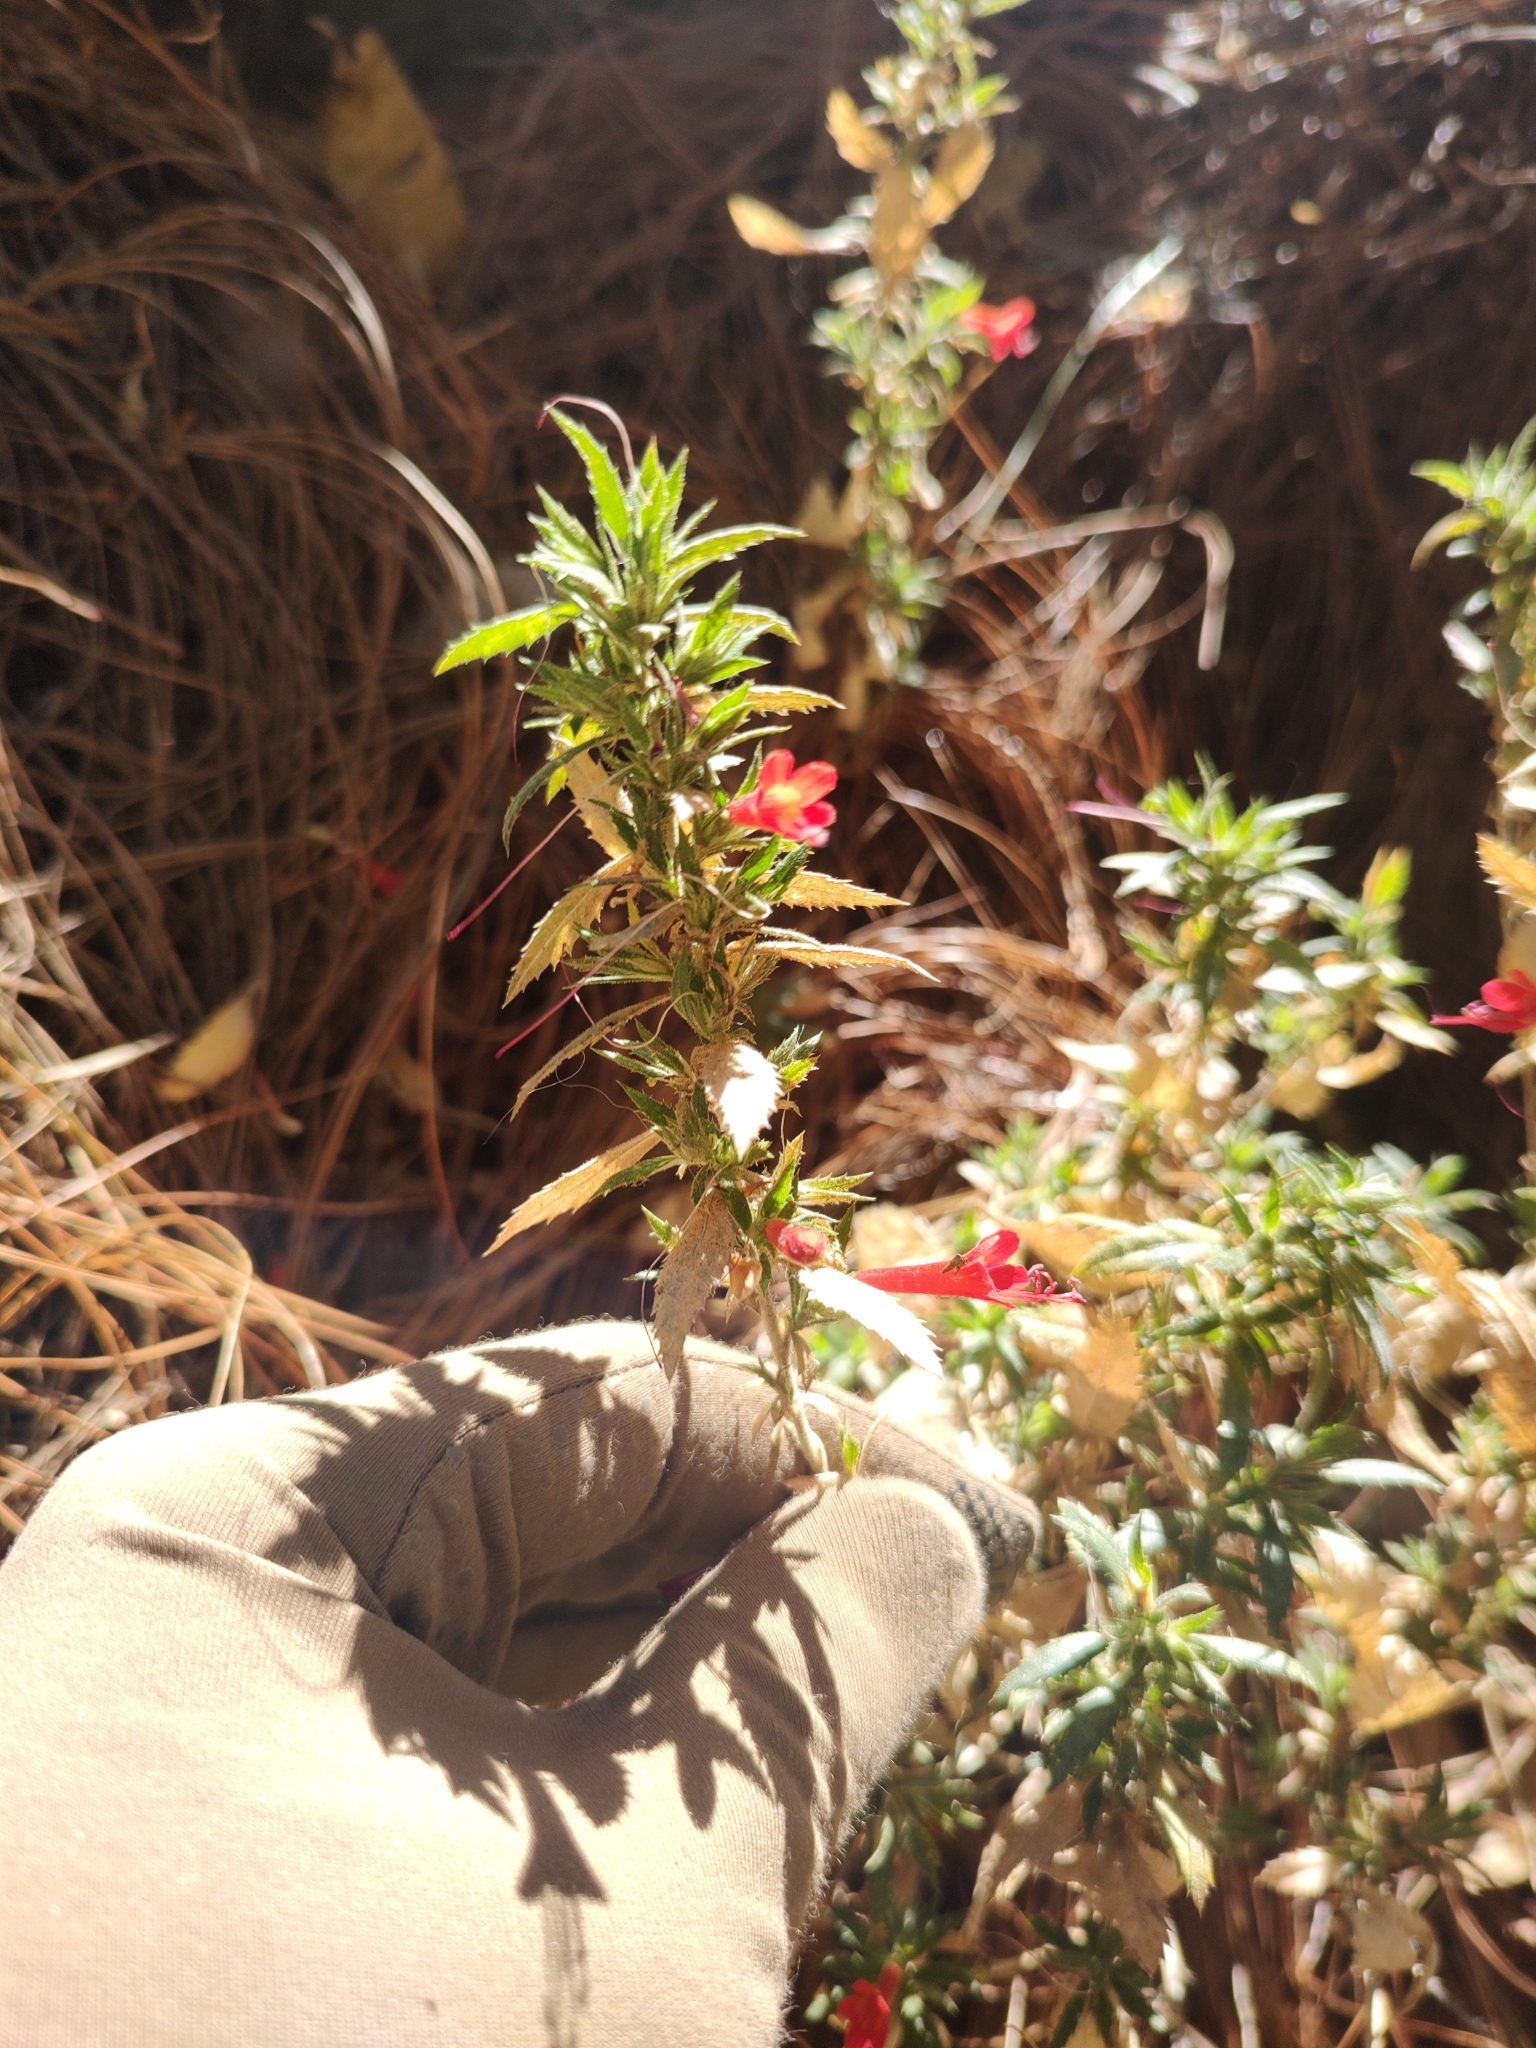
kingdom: Plantae
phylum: Tracheophyta
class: Magnoliopsida
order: Ericales
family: Polemoniaceae
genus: Loeselia
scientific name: Loeselia mexicana
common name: Mexican false calico
